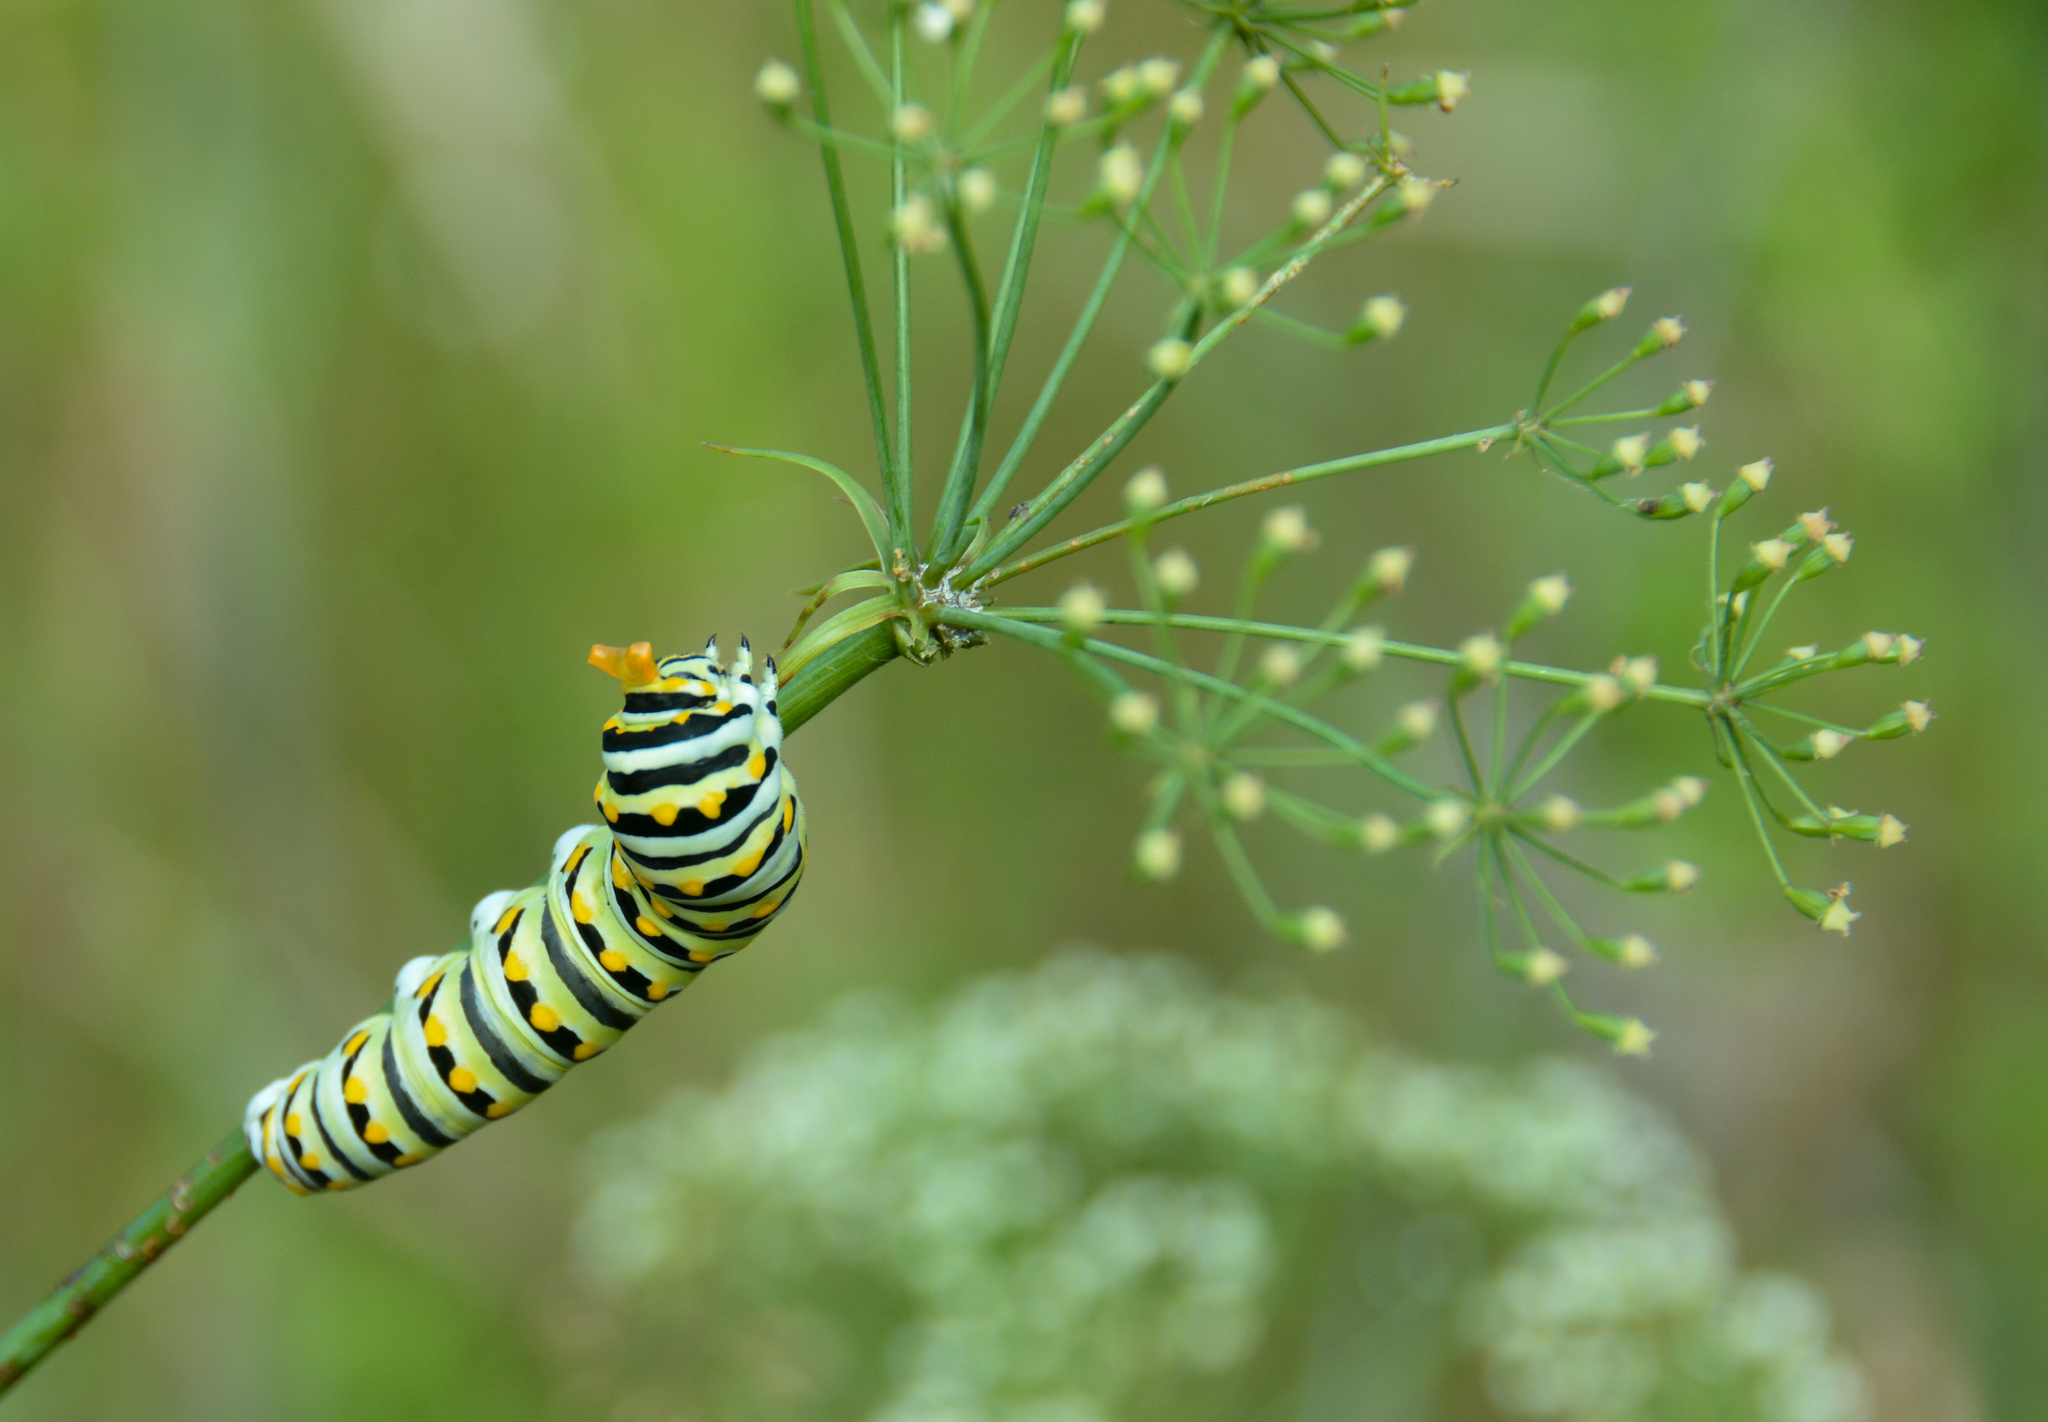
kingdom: Animalia
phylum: Arthropoda
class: Insecta
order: Lepidoptera
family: Papilionidae
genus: Papilio
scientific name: Papilio polyxenes
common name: Black swallowtail
